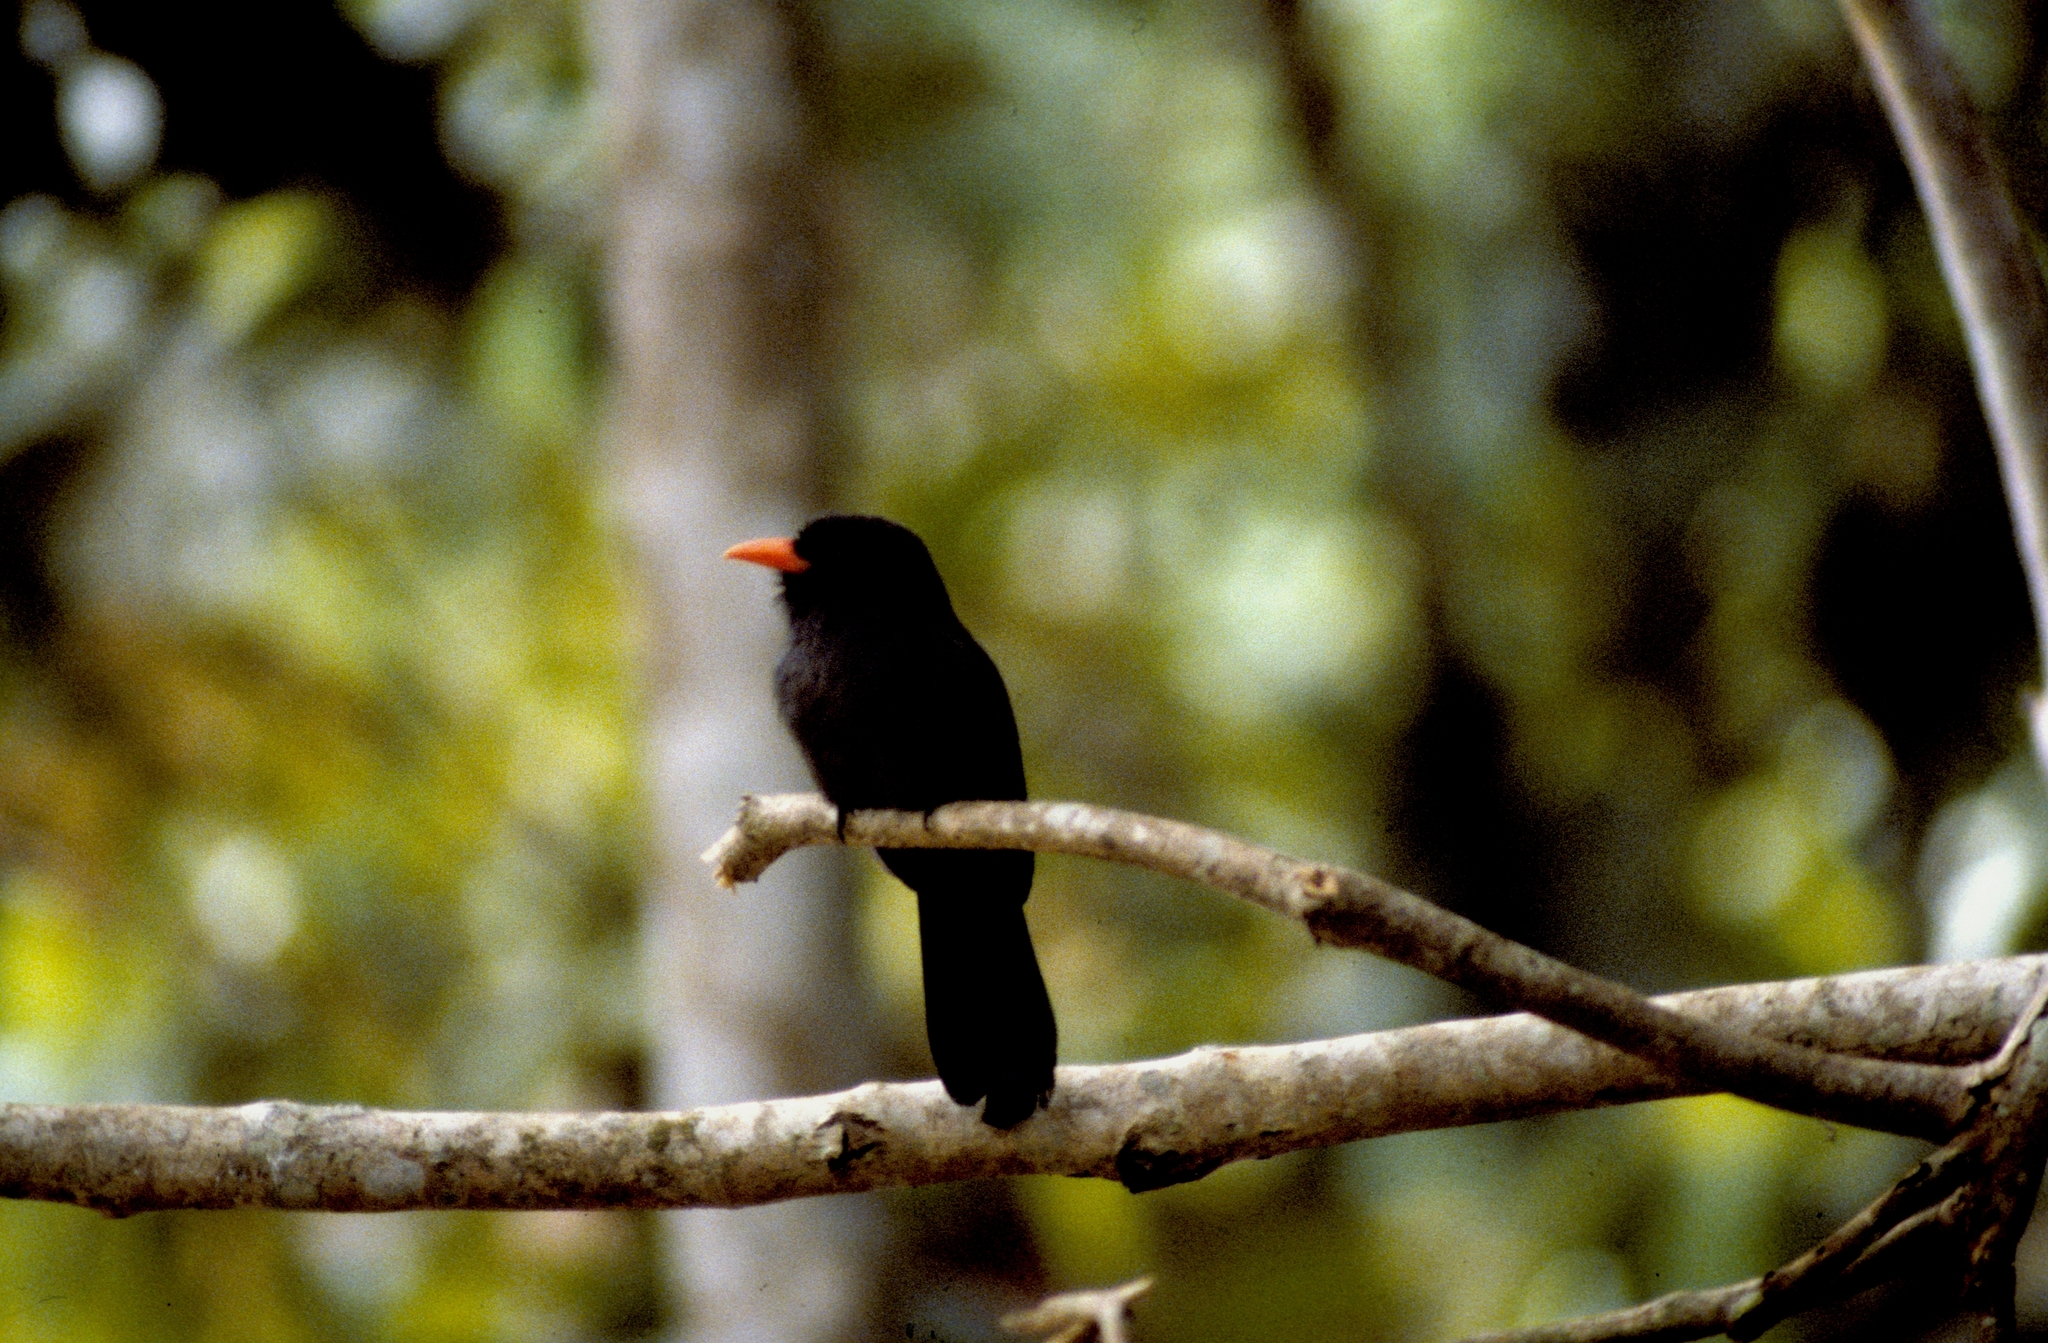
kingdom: Animalia
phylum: Chordata
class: Aves
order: Piciformes
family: Bucconidae
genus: Monasa
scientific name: Monasa nigrifrons
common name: Black-fronted nunbird
